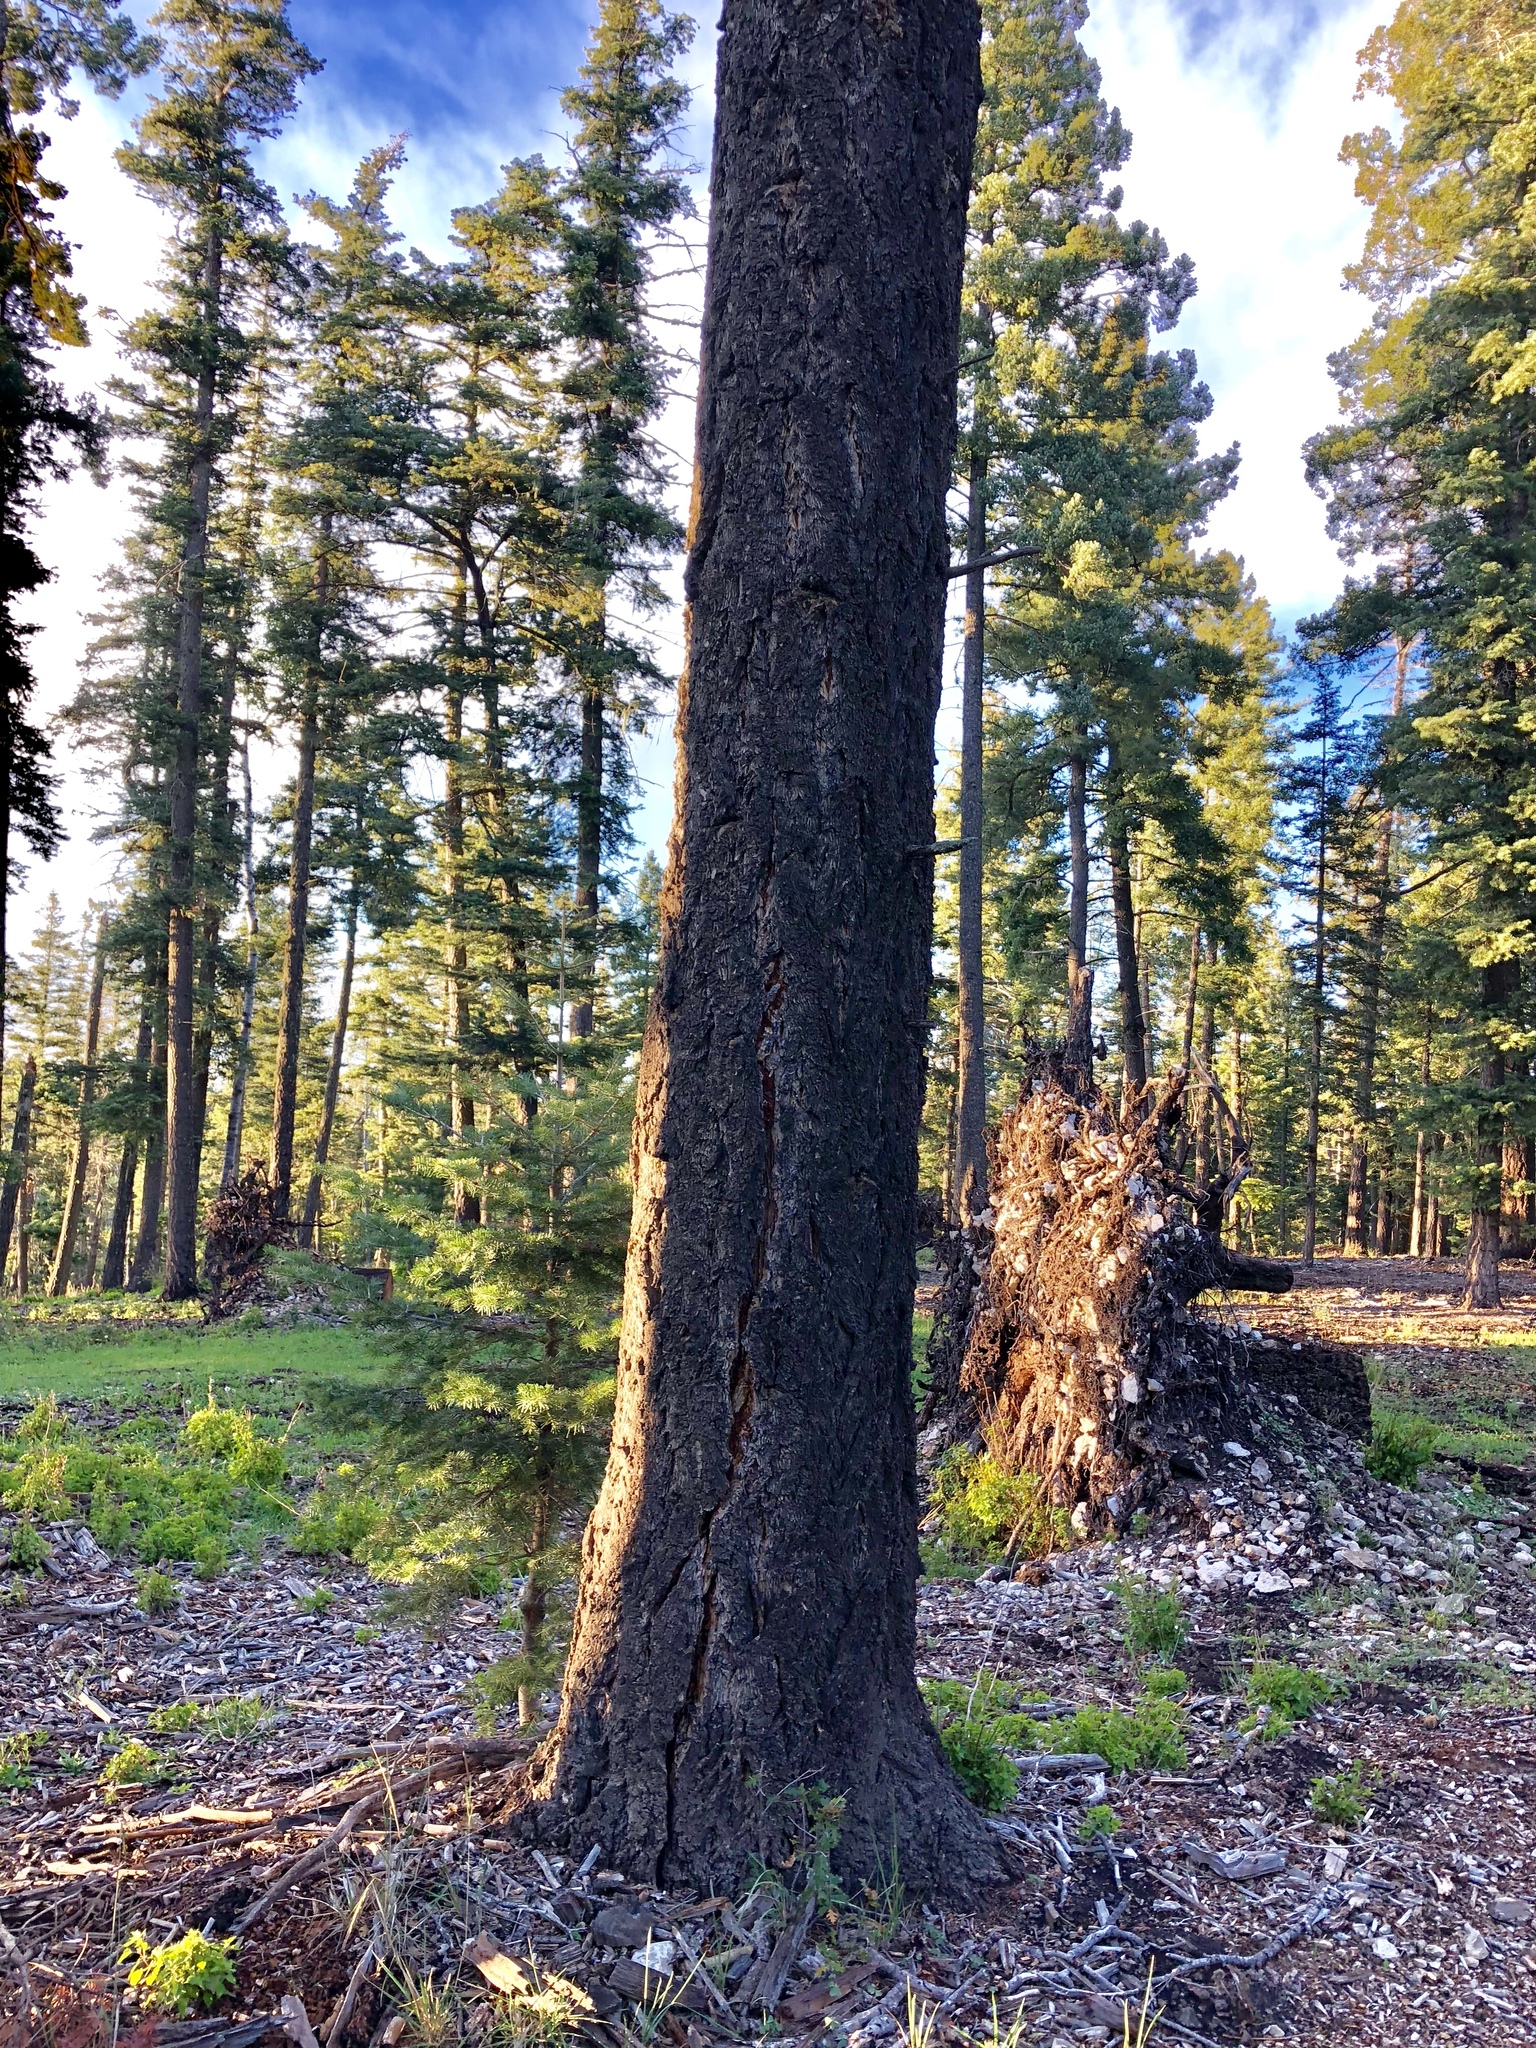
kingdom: Plantae
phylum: Tracheophyta
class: Pinopsida
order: Pinales
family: Pinaceae
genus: Pseudotsuga
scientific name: Pseudotsuga menziesii
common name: Douglas fir
